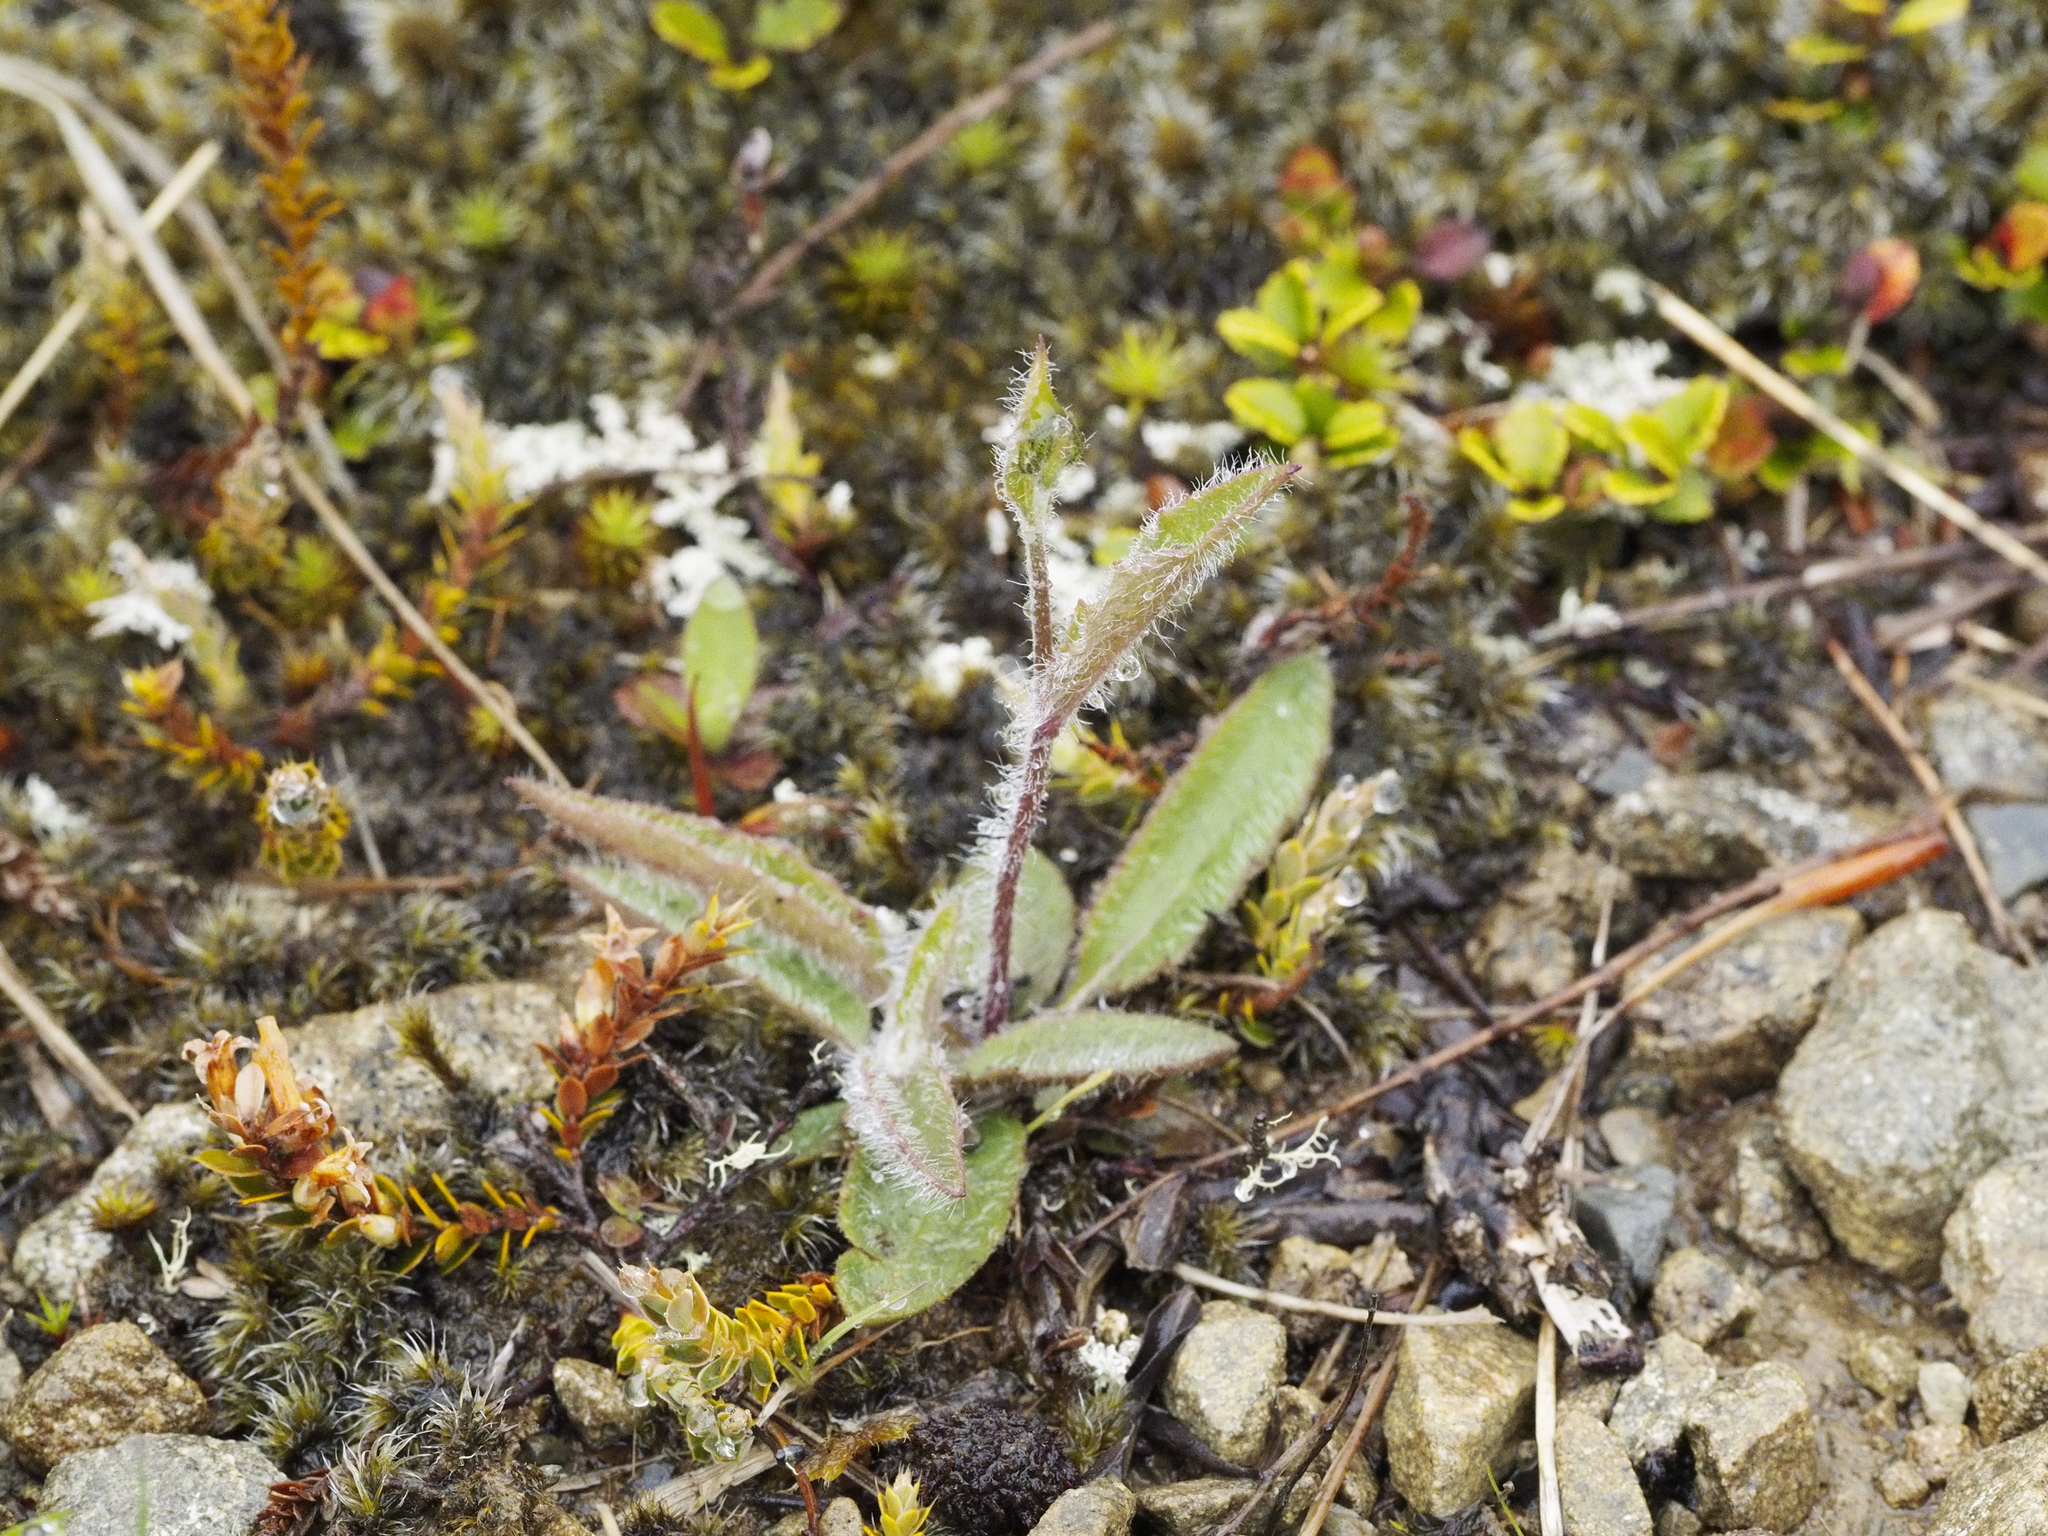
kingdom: Plantae
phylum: Tracheophyta
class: Magnoliopsida
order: Asterales
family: Asteraceae
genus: Hieracium
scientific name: Hieracium lepidulum
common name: Irregular-toothed hawkweed
